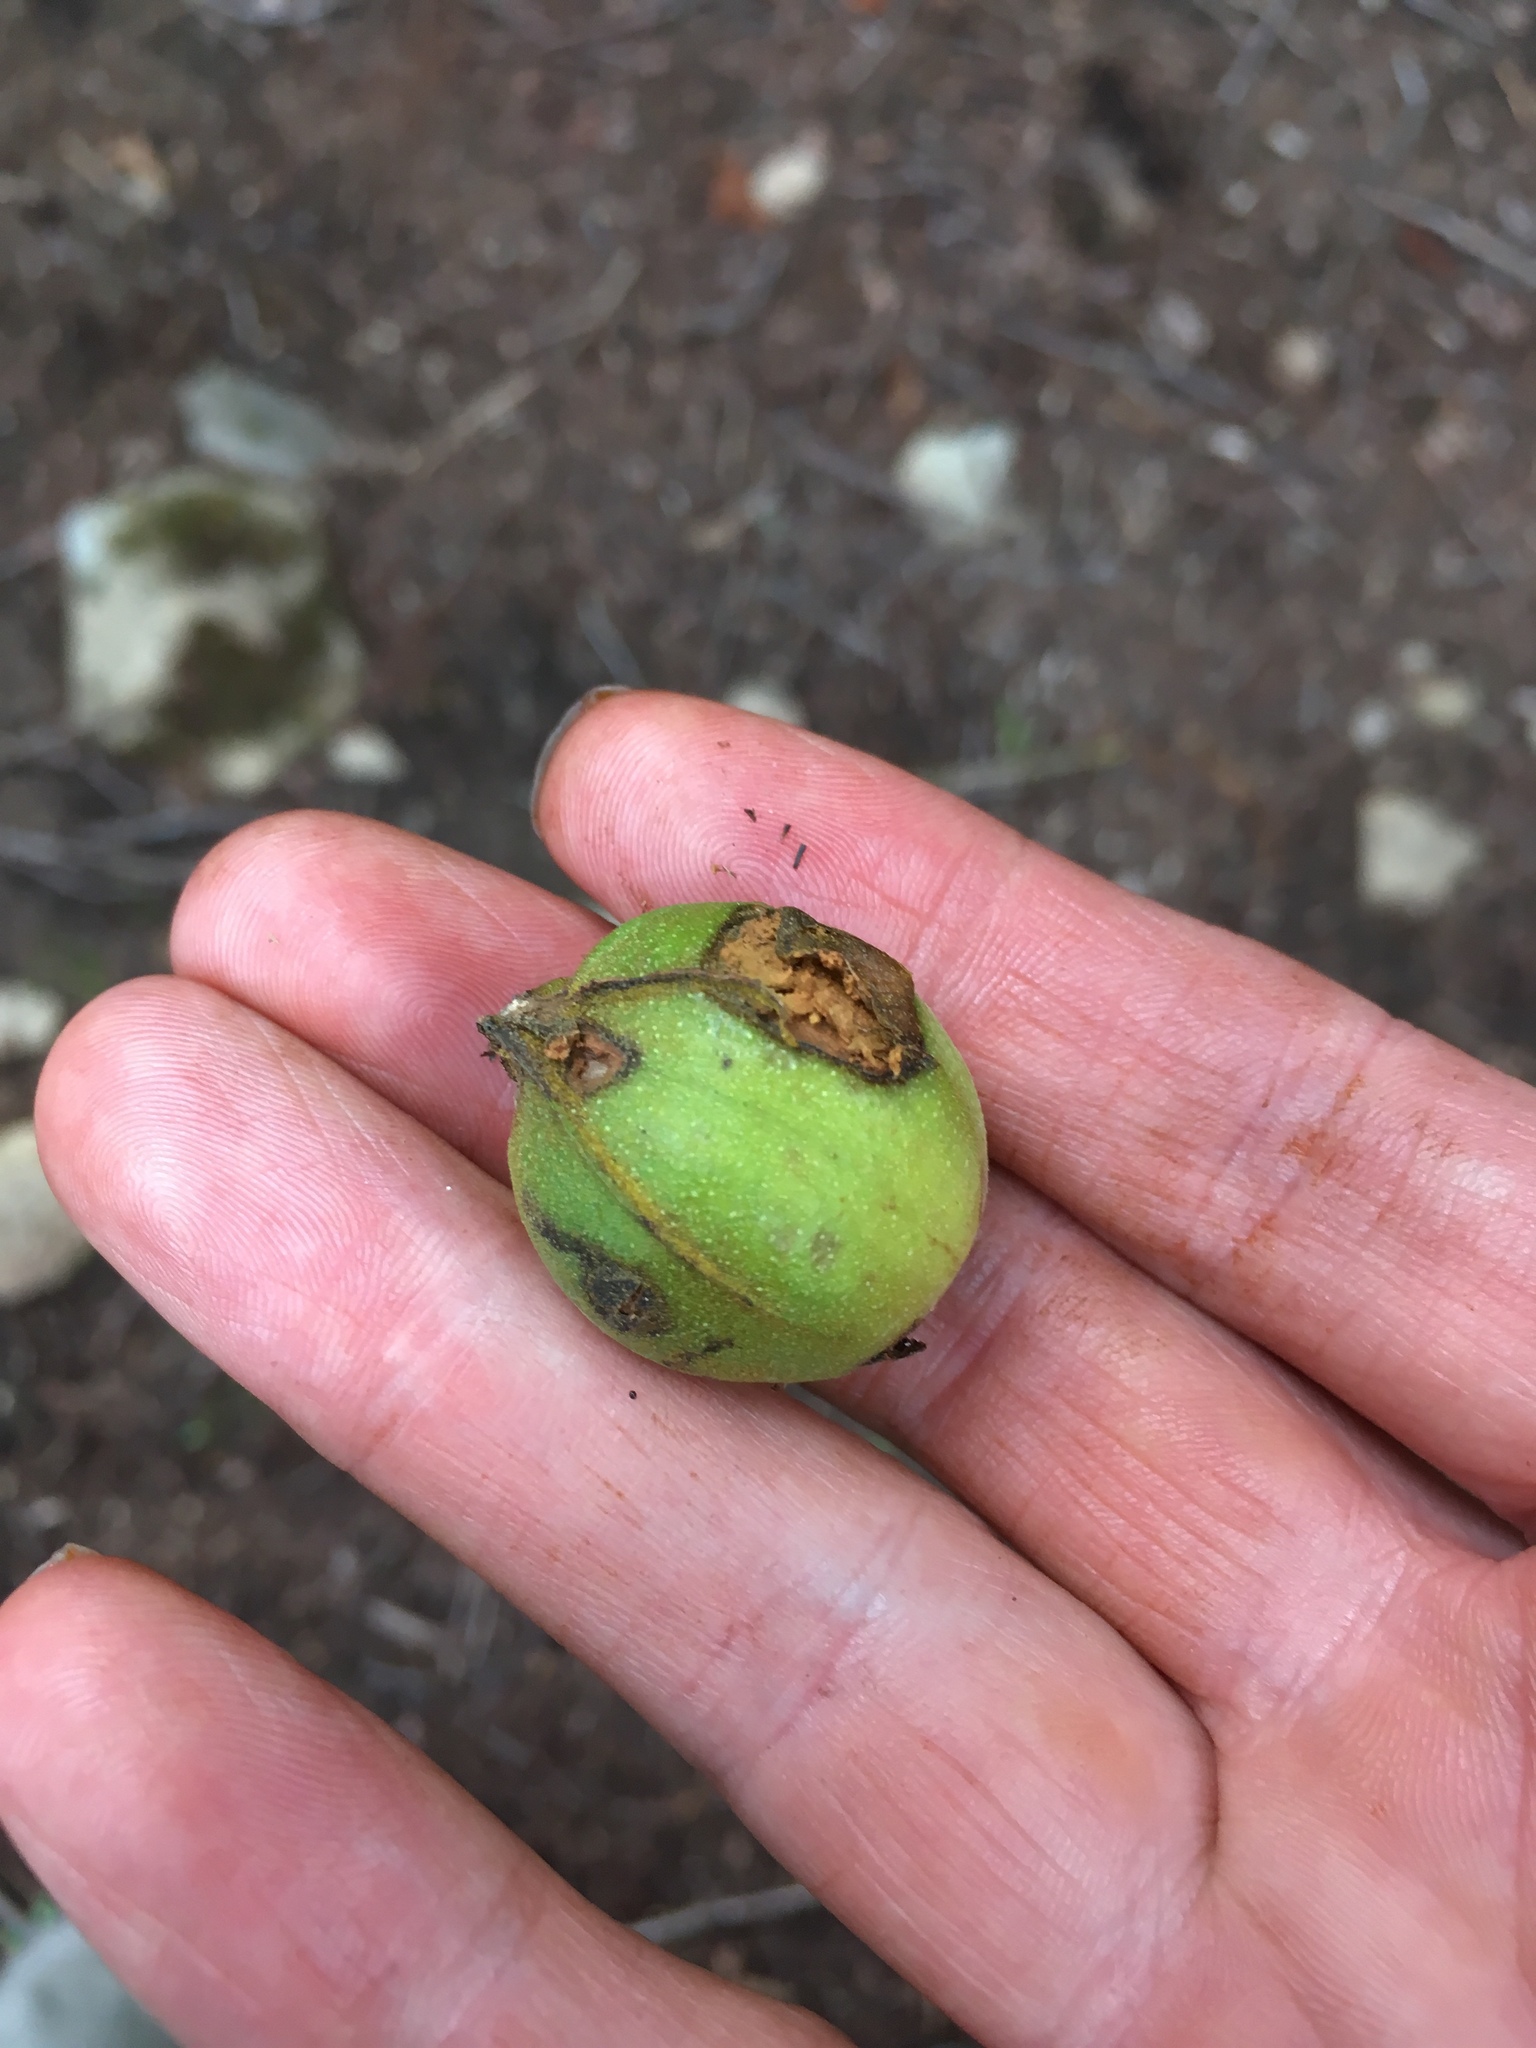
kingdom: Plantae
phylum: Tracheophyta
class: Magnoliopsida
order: Fagales
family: Juglandaceae
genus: Carya
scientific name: Carya cordiformis
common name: Bitternut hickory
